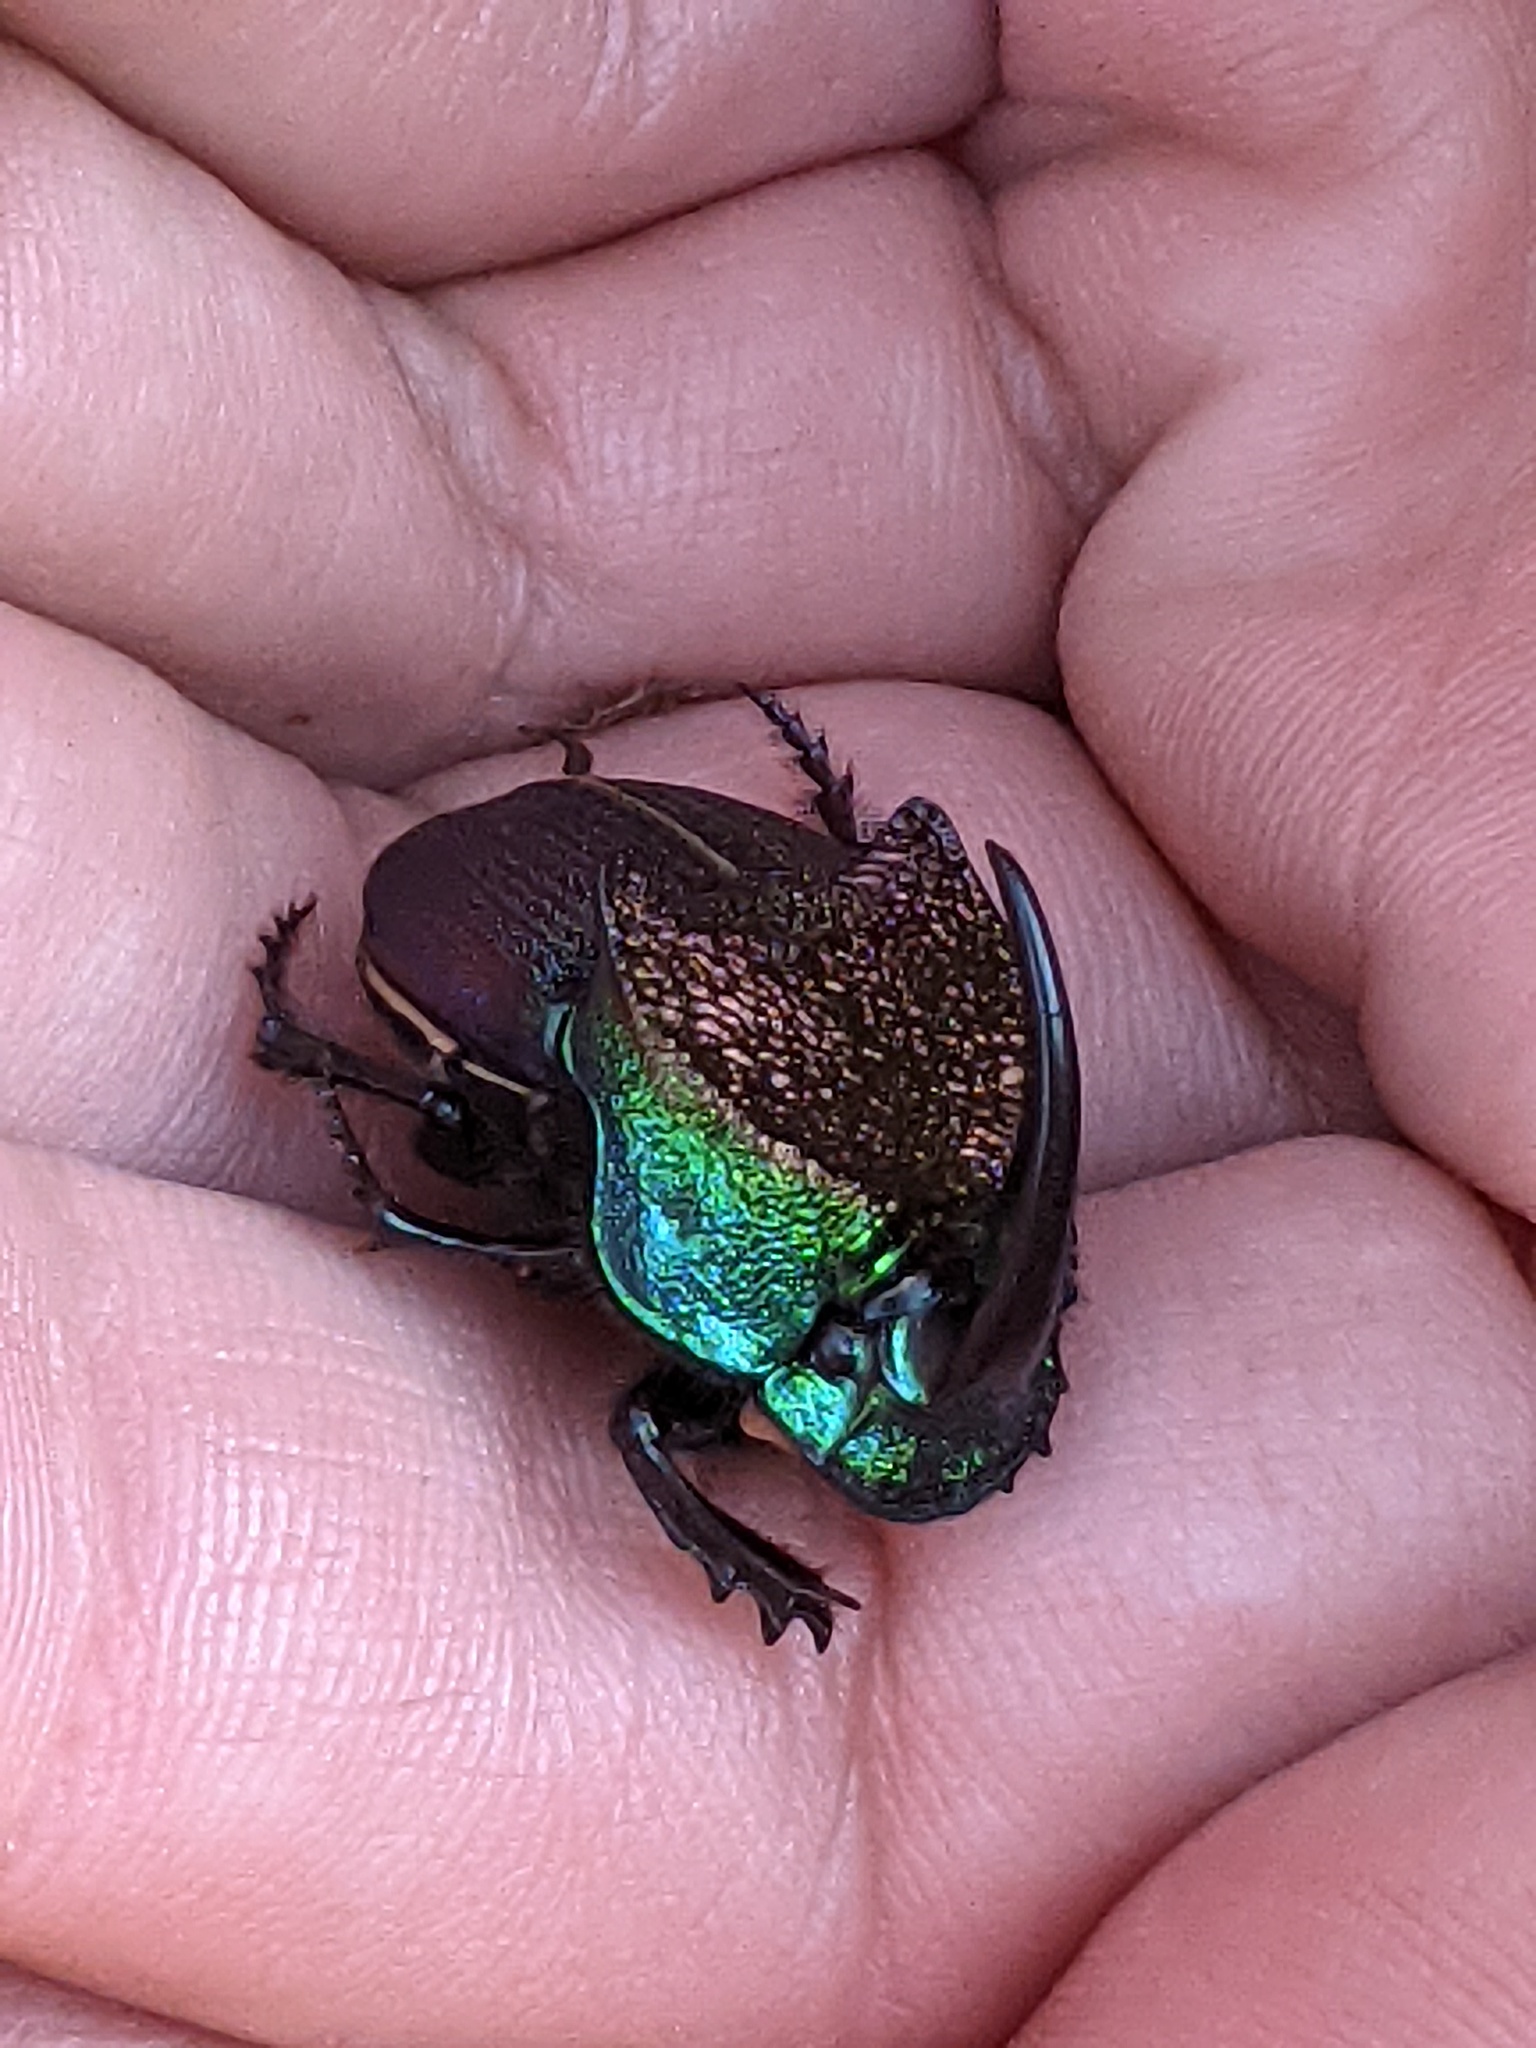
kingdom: Animalia
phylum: Arthropoda
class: Insecta
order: Coleoptera
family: Scarabaeidae
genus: Phanaeus
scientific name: Phanaeus difformis
